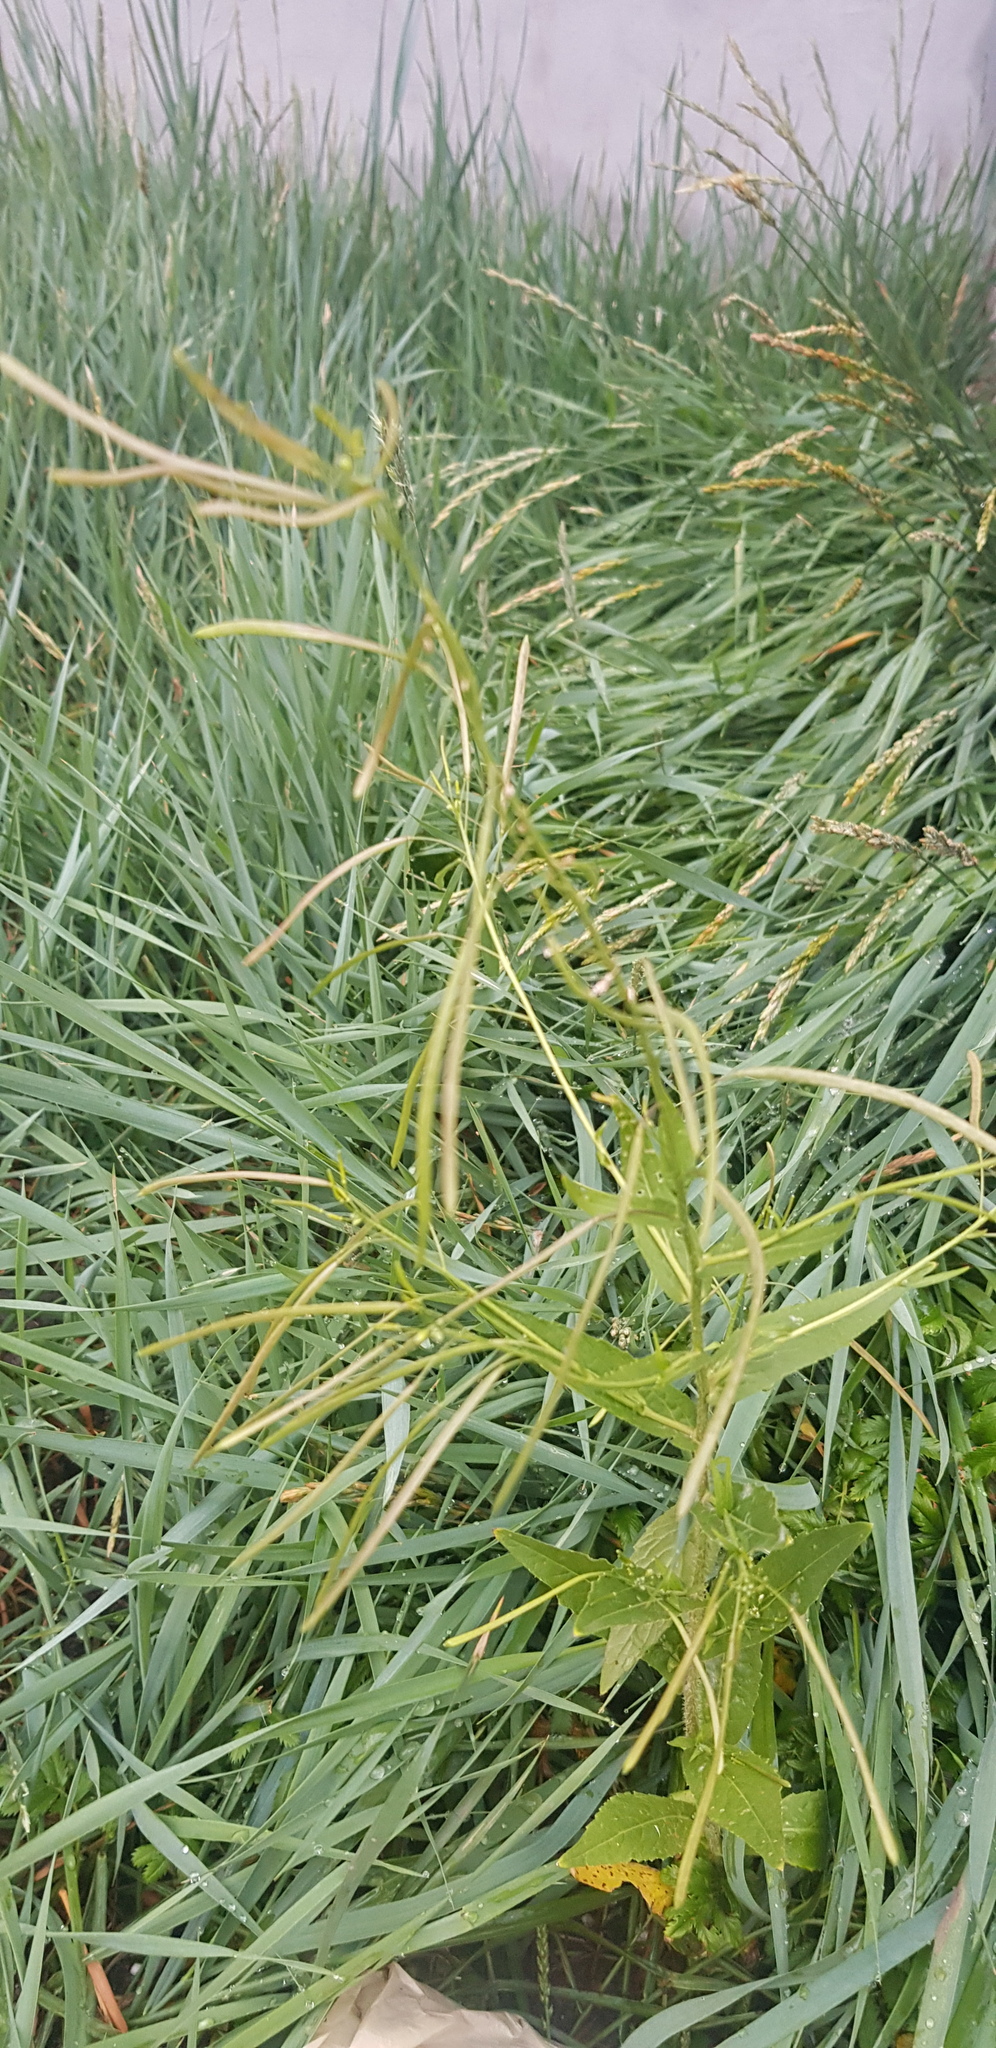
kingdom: Plantae
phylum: Tracheophyta
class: Magnoliopsida
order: Brassicales
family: Brassicaceae
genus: Catolobus
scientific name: Catolobus pendulus
